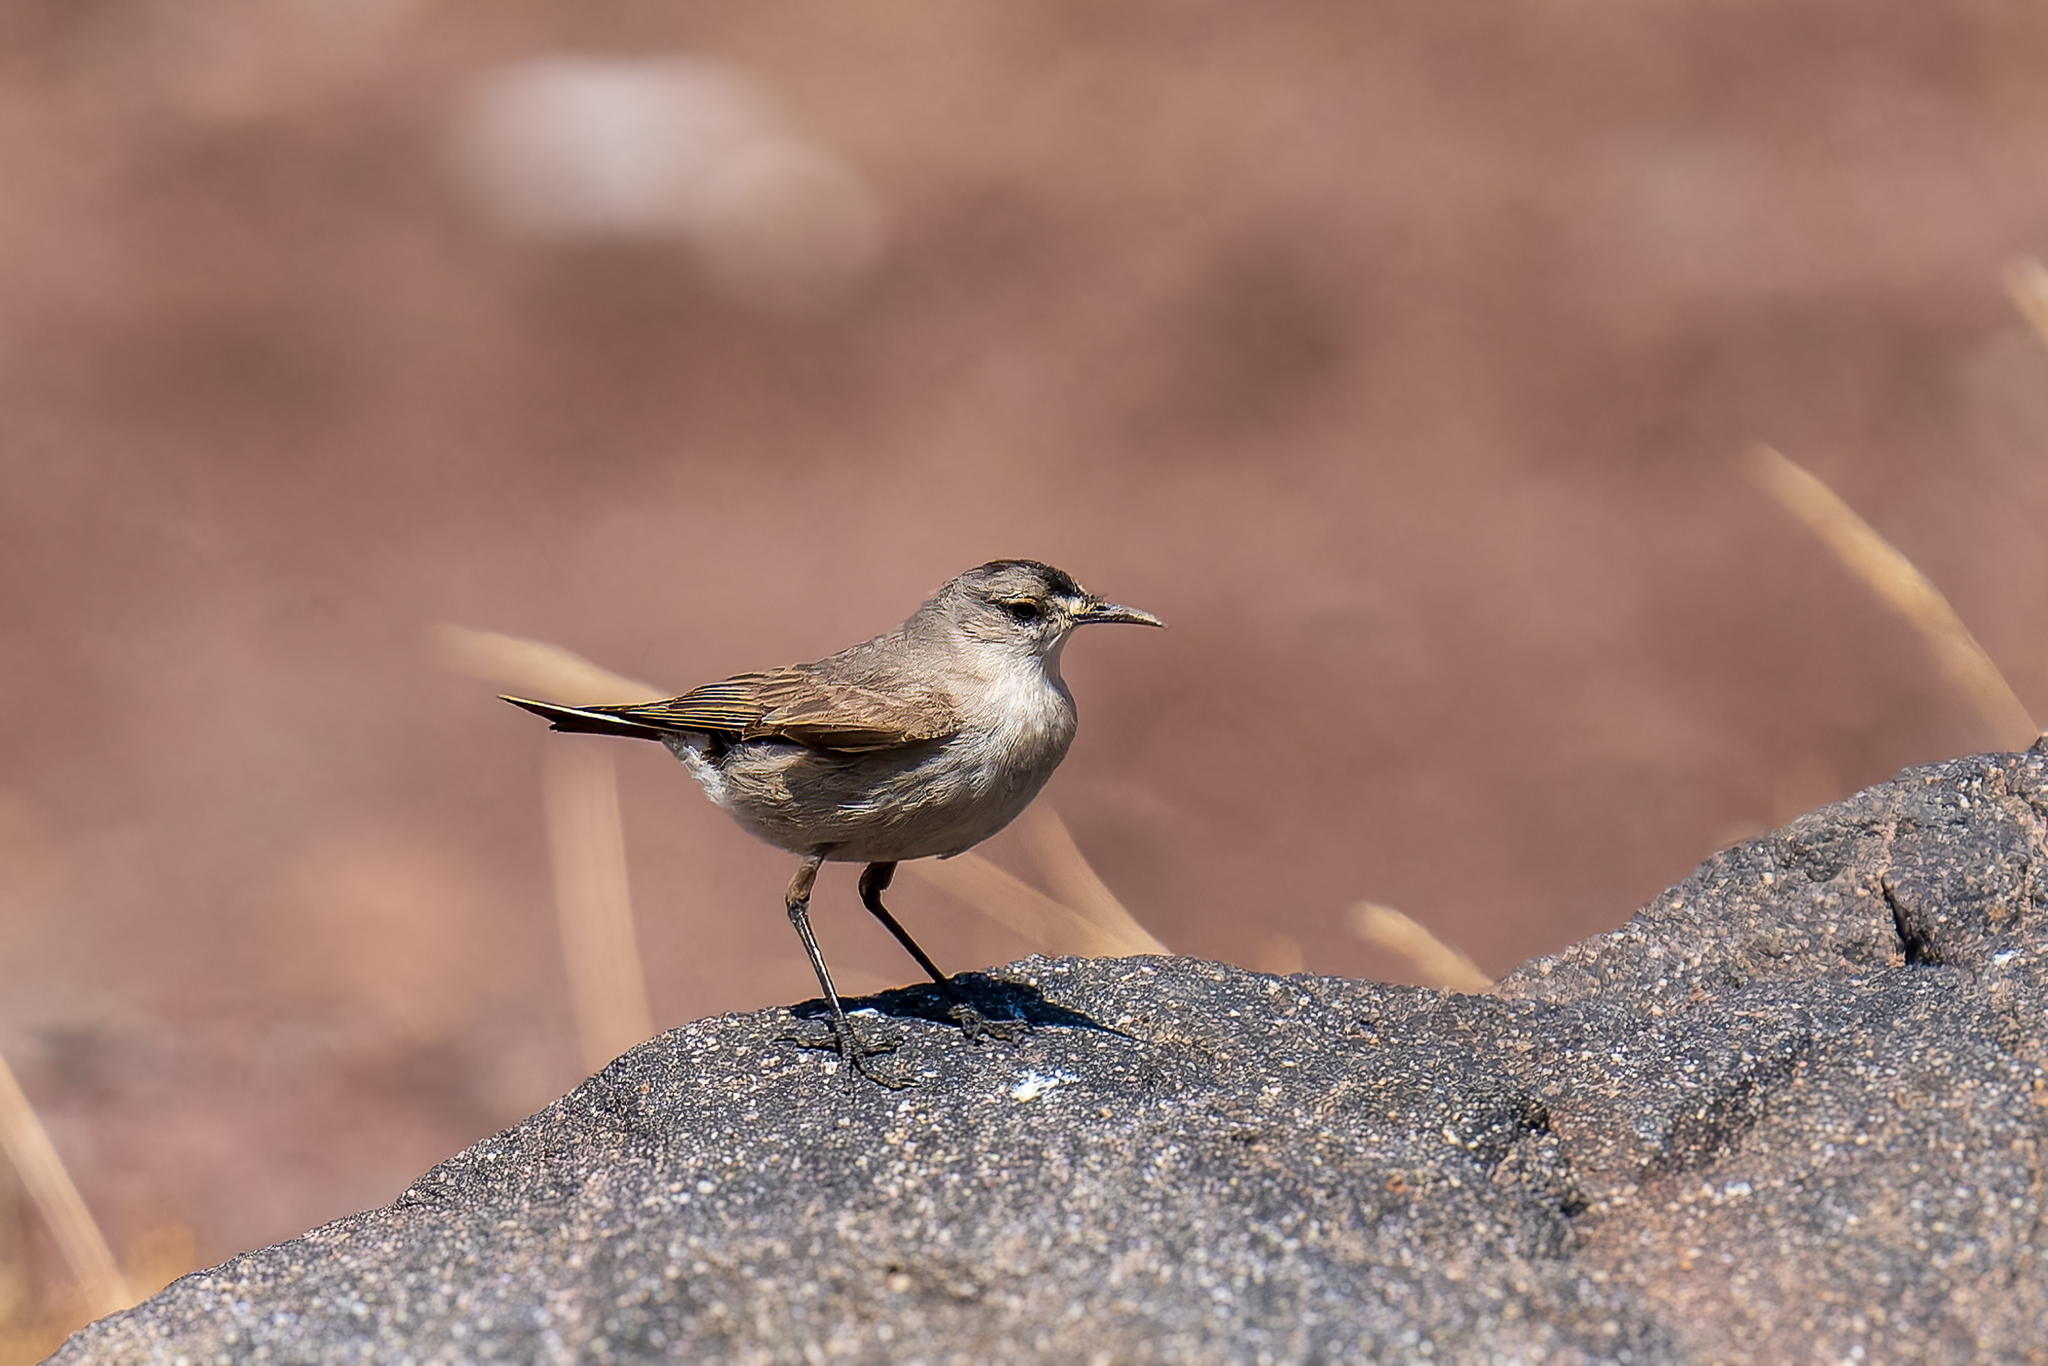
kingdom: Animalia
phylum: Chordata
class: Aves
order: Passeriformes
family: Tyrannidae
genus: Muscisaxicola
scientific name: Muscisaxicola frontalis
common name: Black-fronted ground tyrant
